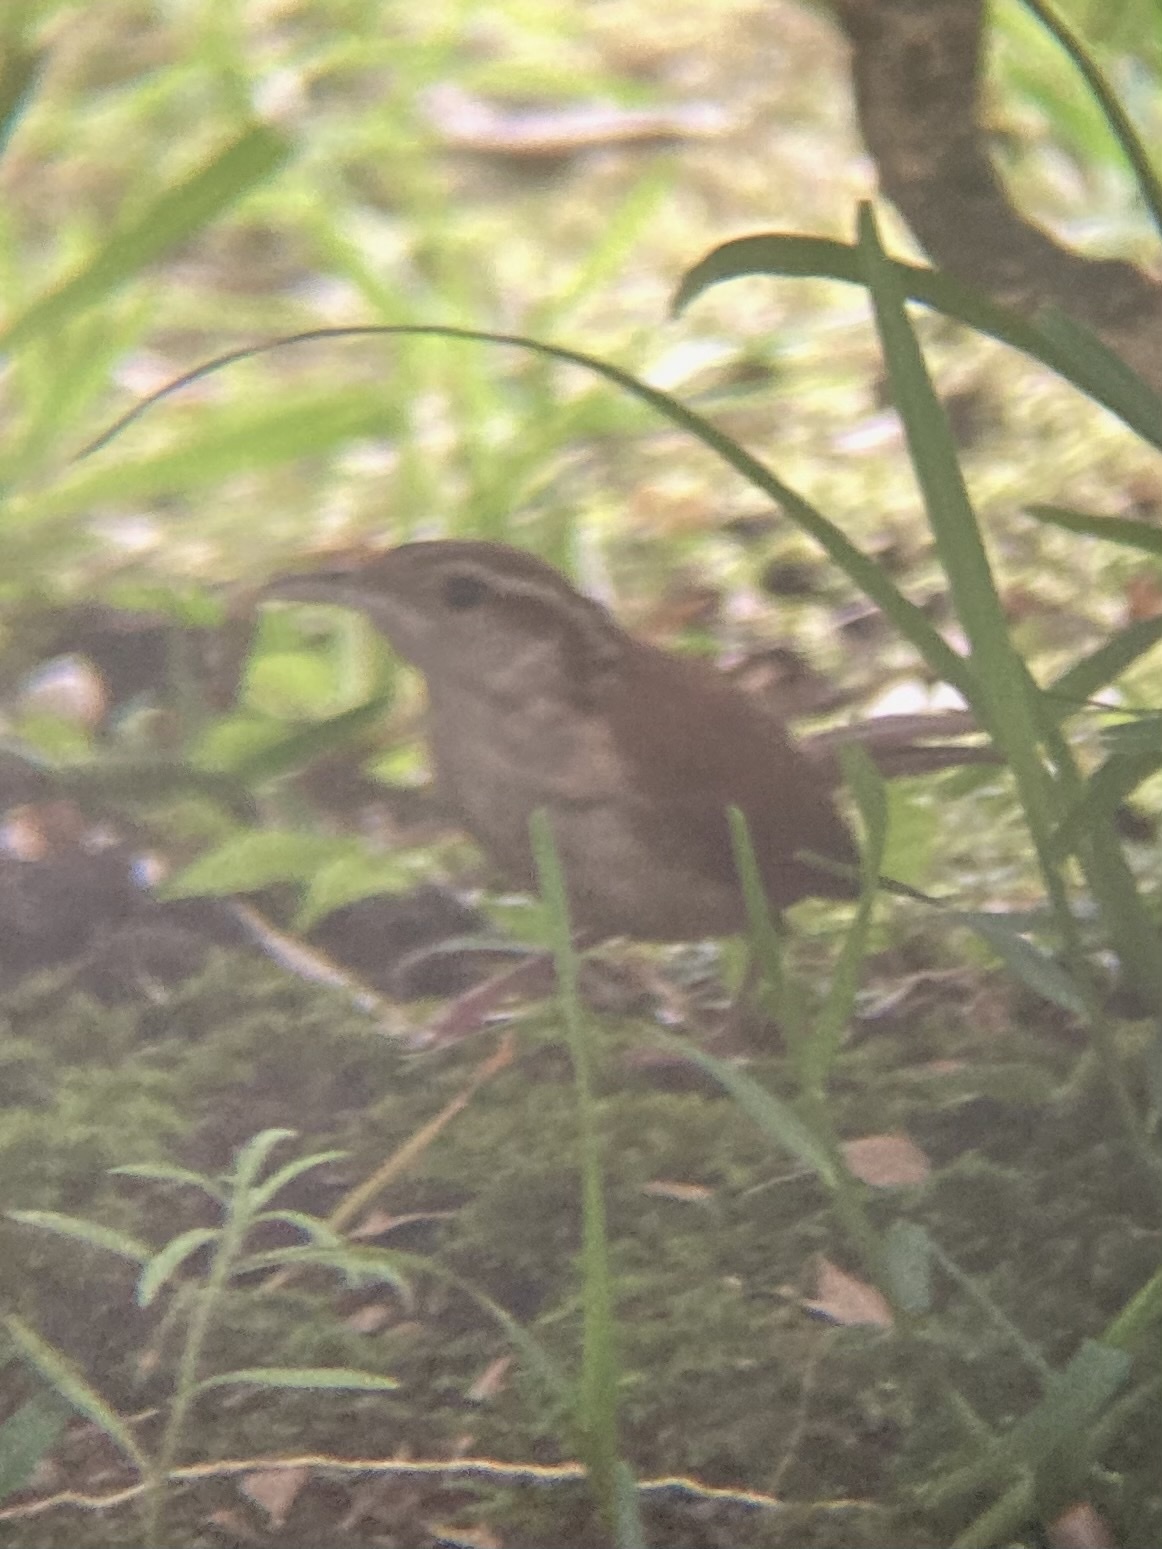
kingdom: Animalia
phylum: Chordata
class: Aves
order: Passeriformes
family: Troglodytidae
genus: Thryothorus
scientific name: Thryothorus ludovicianus
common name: Carolina wren
